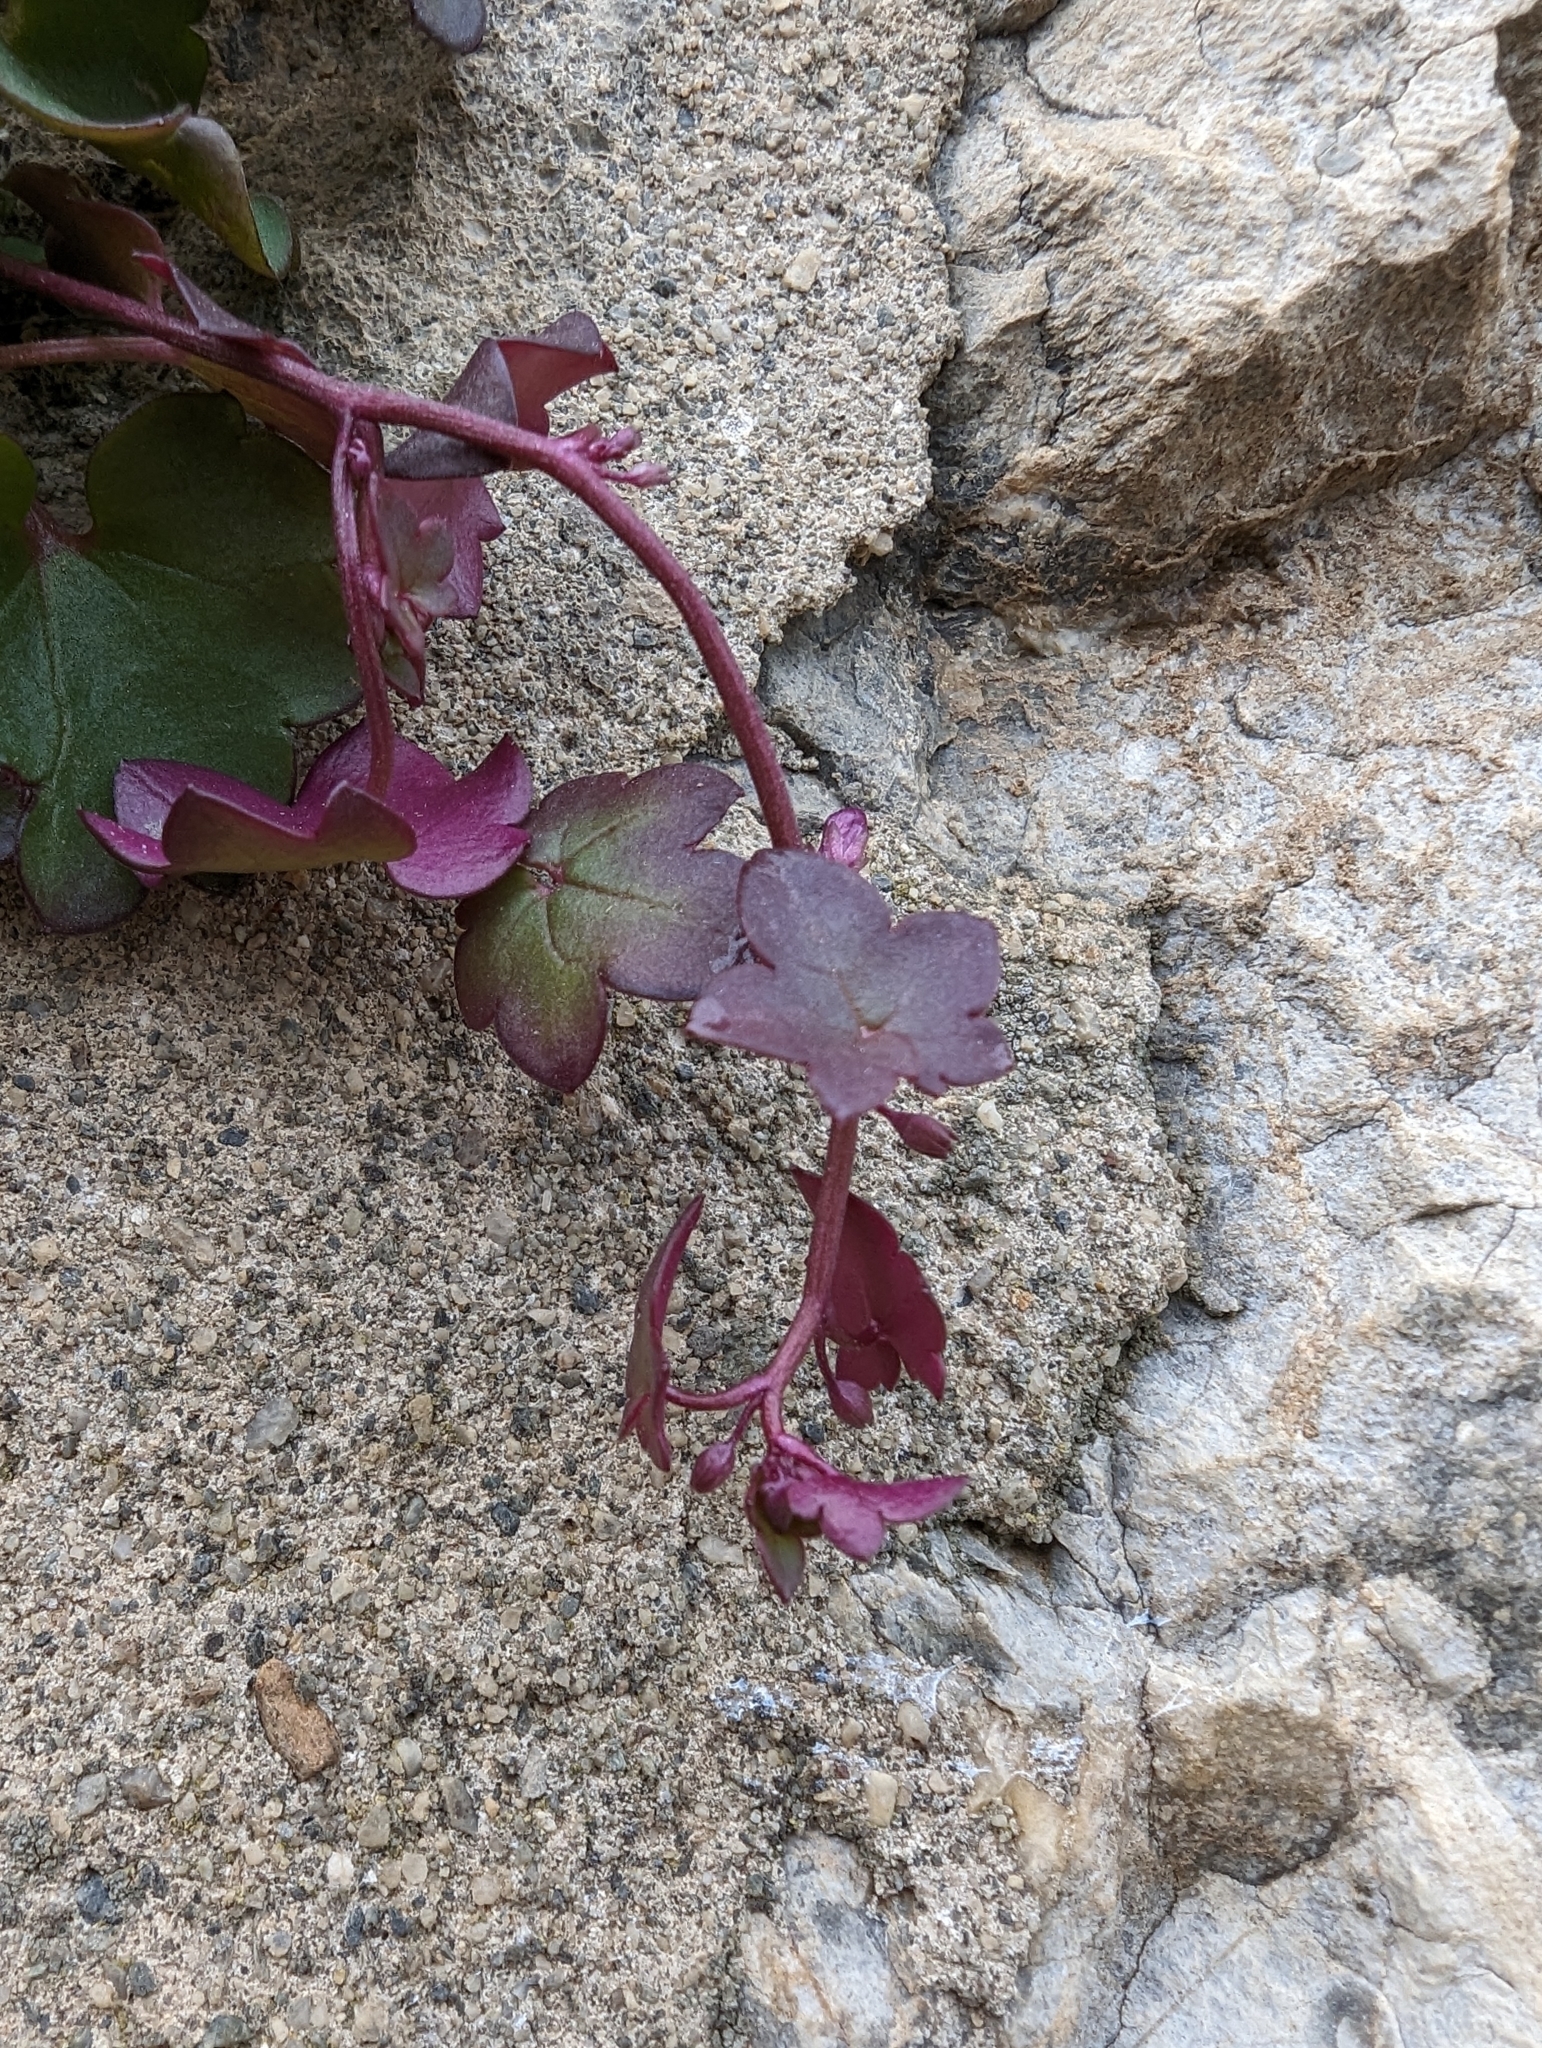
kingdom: Plantae
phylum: Tracheophyta
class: Magnoliopsida
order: Lamiales
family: Plantaginaceae
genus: Cymbalaria
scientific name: Cymbalaria muralis
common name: Ivy-leaved toadflax
